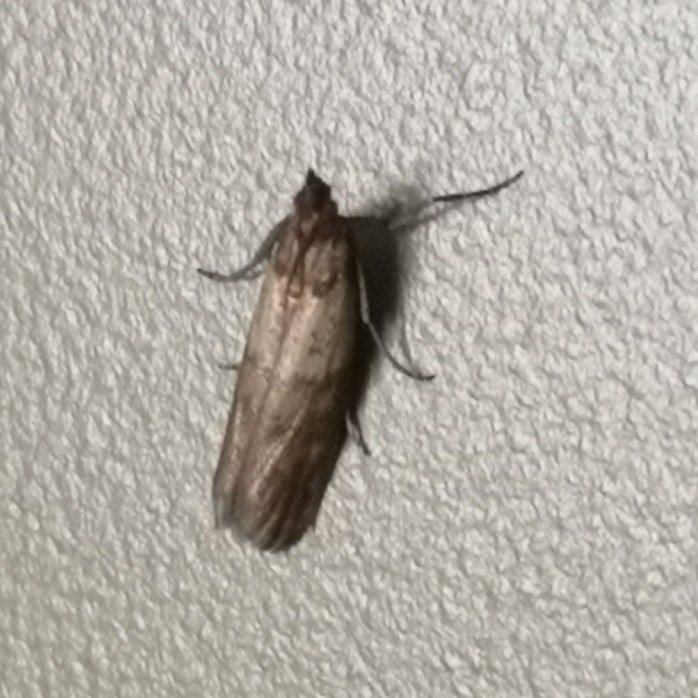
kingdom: Animalia
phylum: Arthropoda
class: Insecta
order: Lepidoptera
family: Pyralidae
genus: Plodia
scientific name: Plodia interpunctella
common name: Indian meal moth
